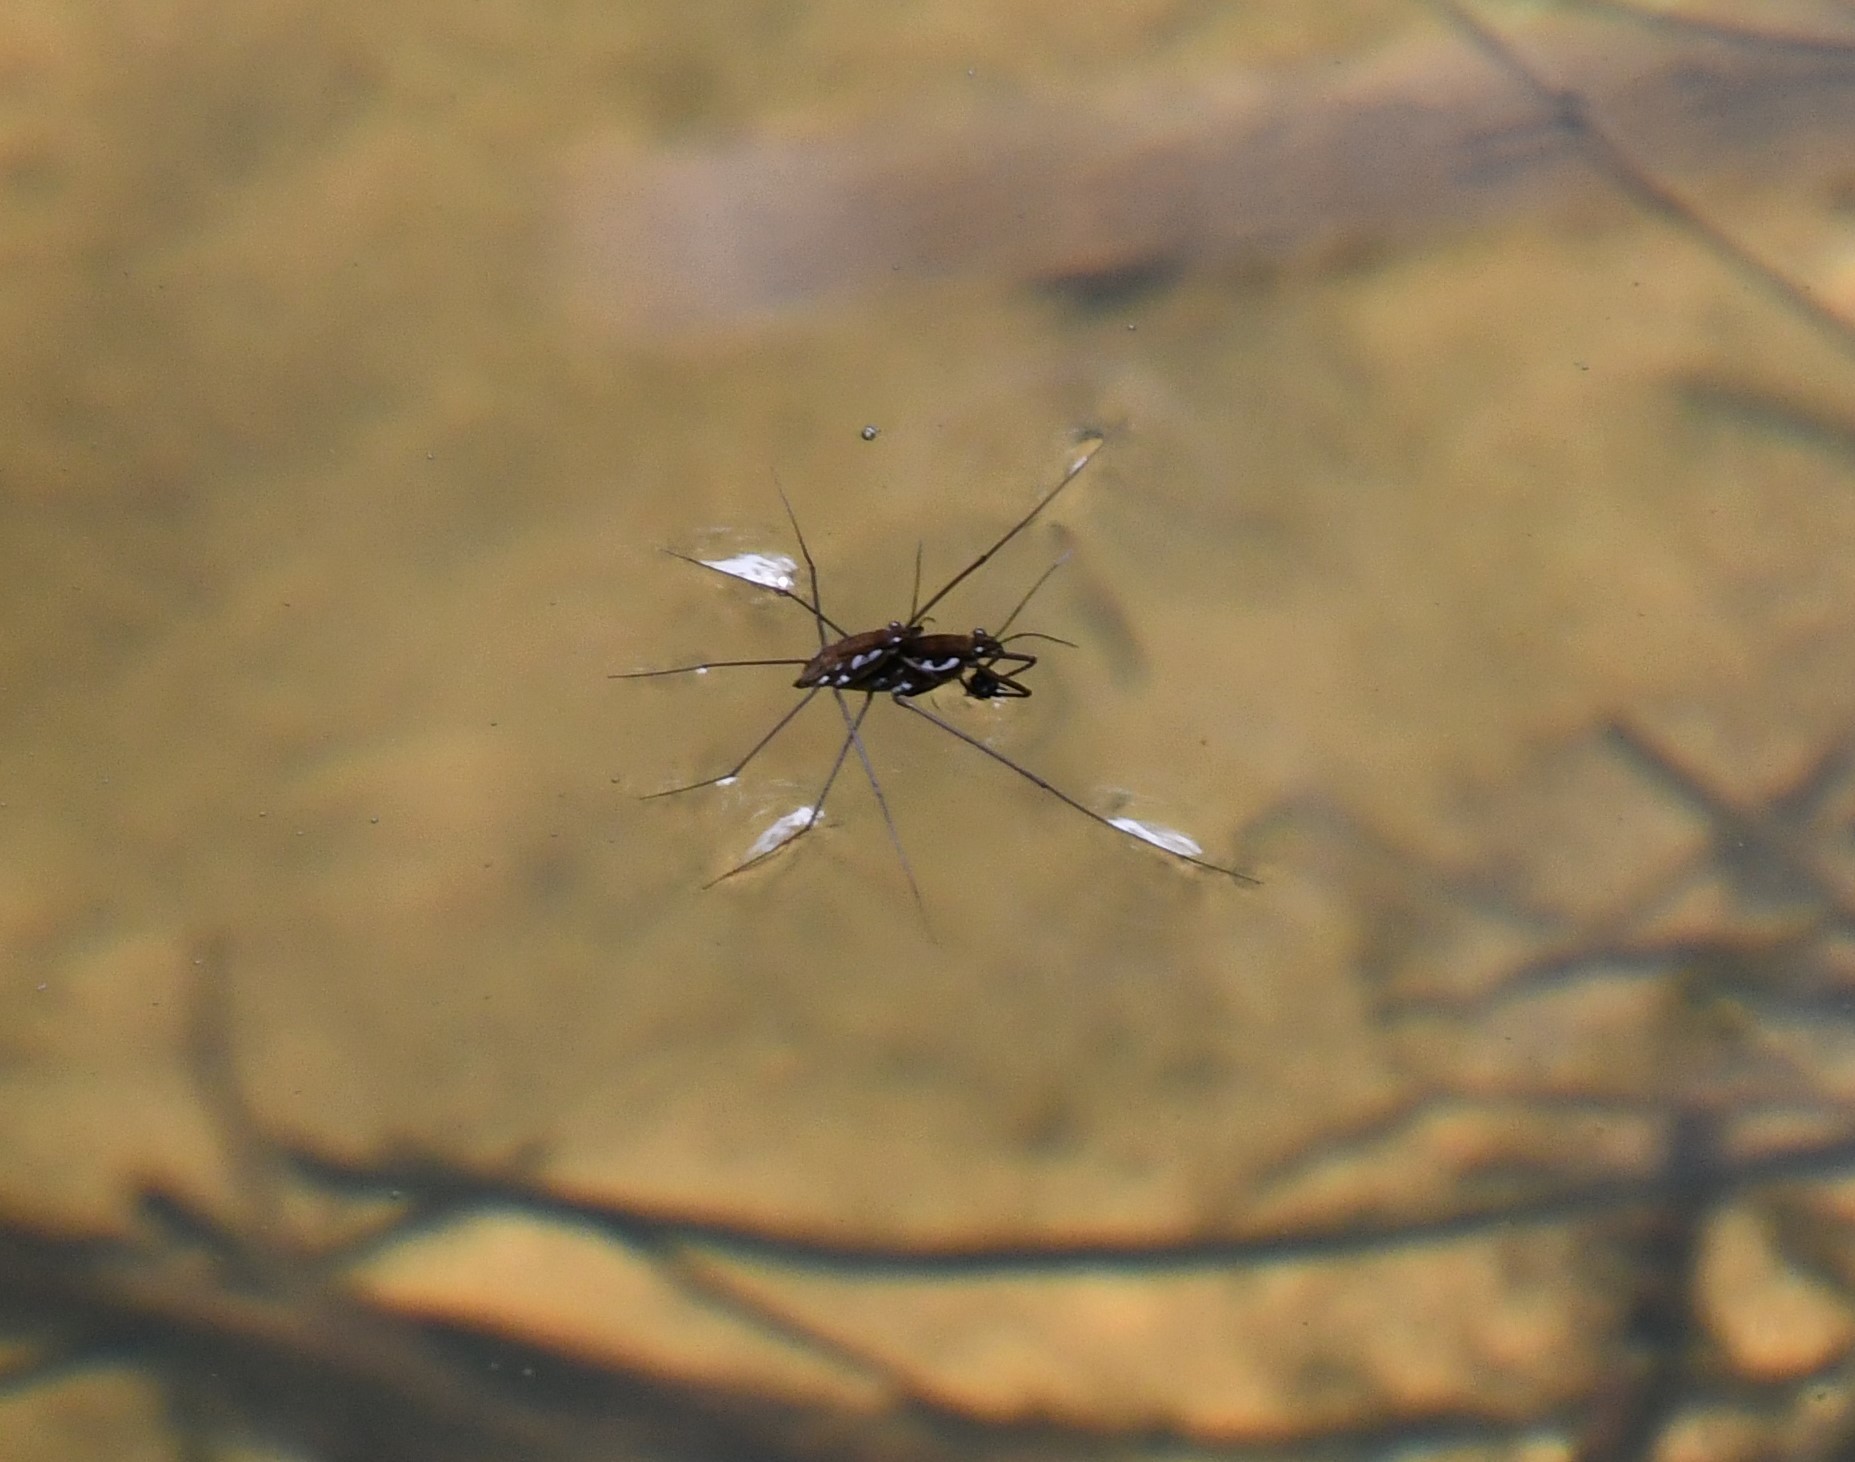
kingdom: Animalia
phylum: Arthropoda
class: Insecta
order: Hemiptera
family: Gerridae
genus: Tenagogerris
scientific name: Tenagogerris euphrosyne
